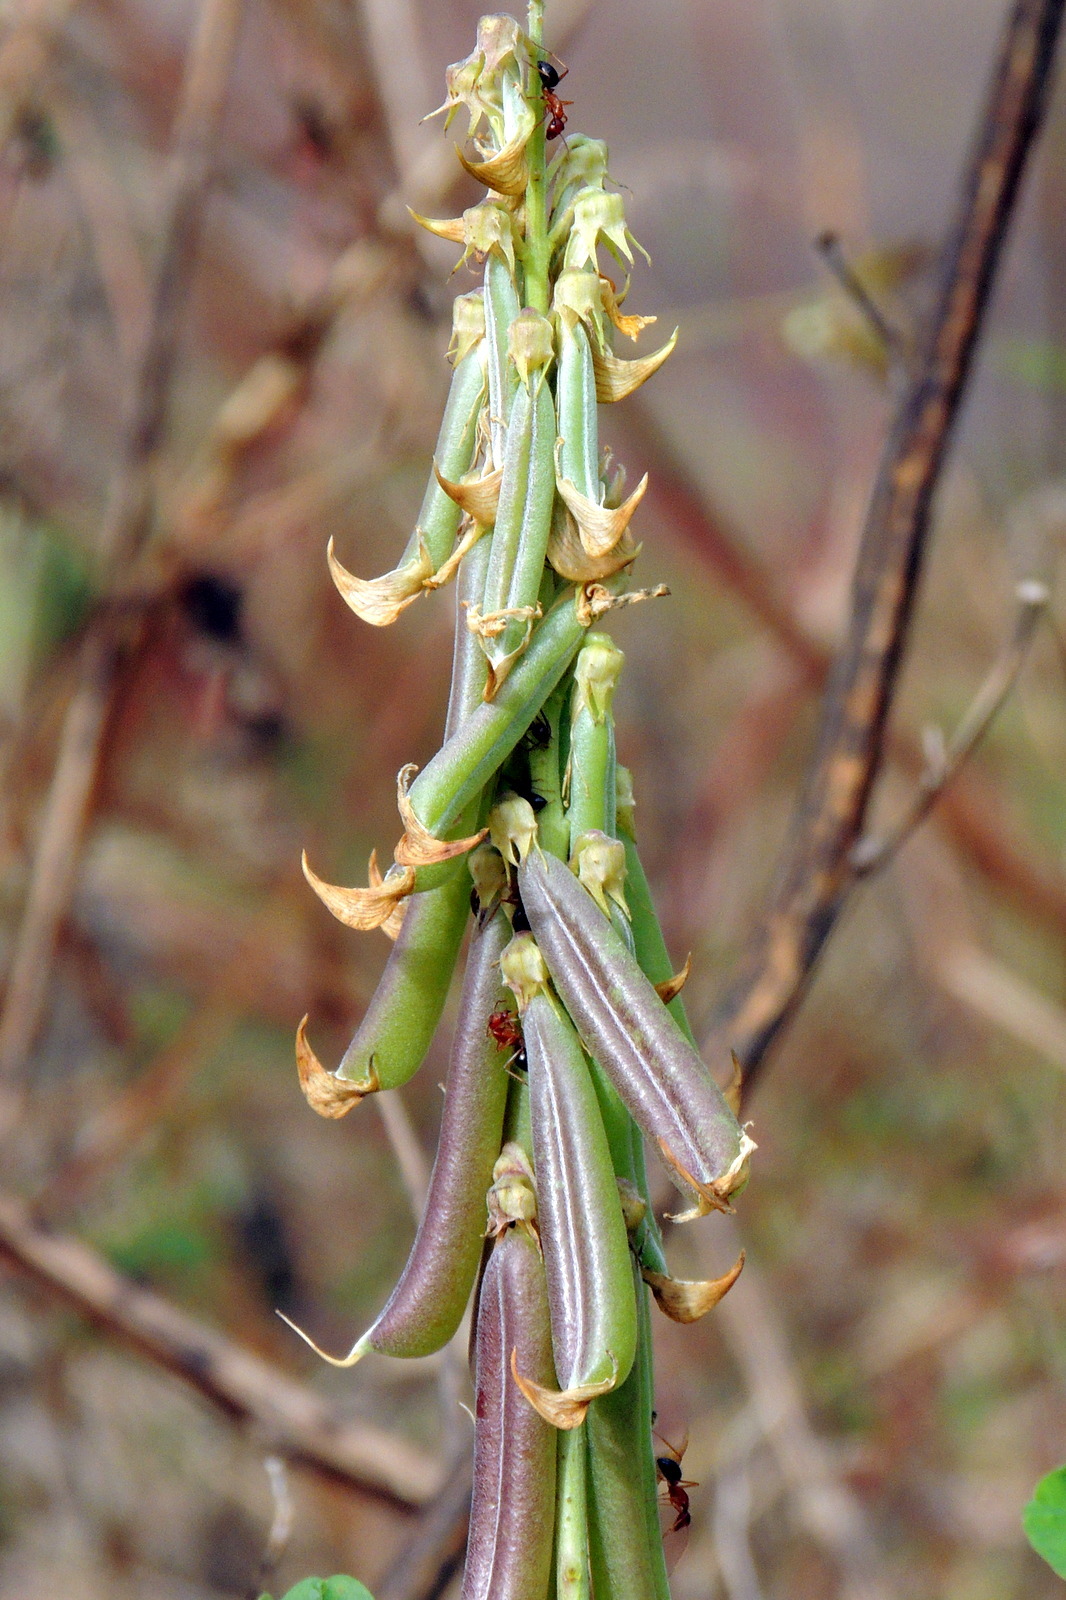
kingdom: Plantae
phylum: Tracheophyta
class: Magnoliopsida
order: Fabales
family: Fabaceae
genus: Crotalaria
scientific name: Crotalaria pallida
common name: Smooth rattlebox
